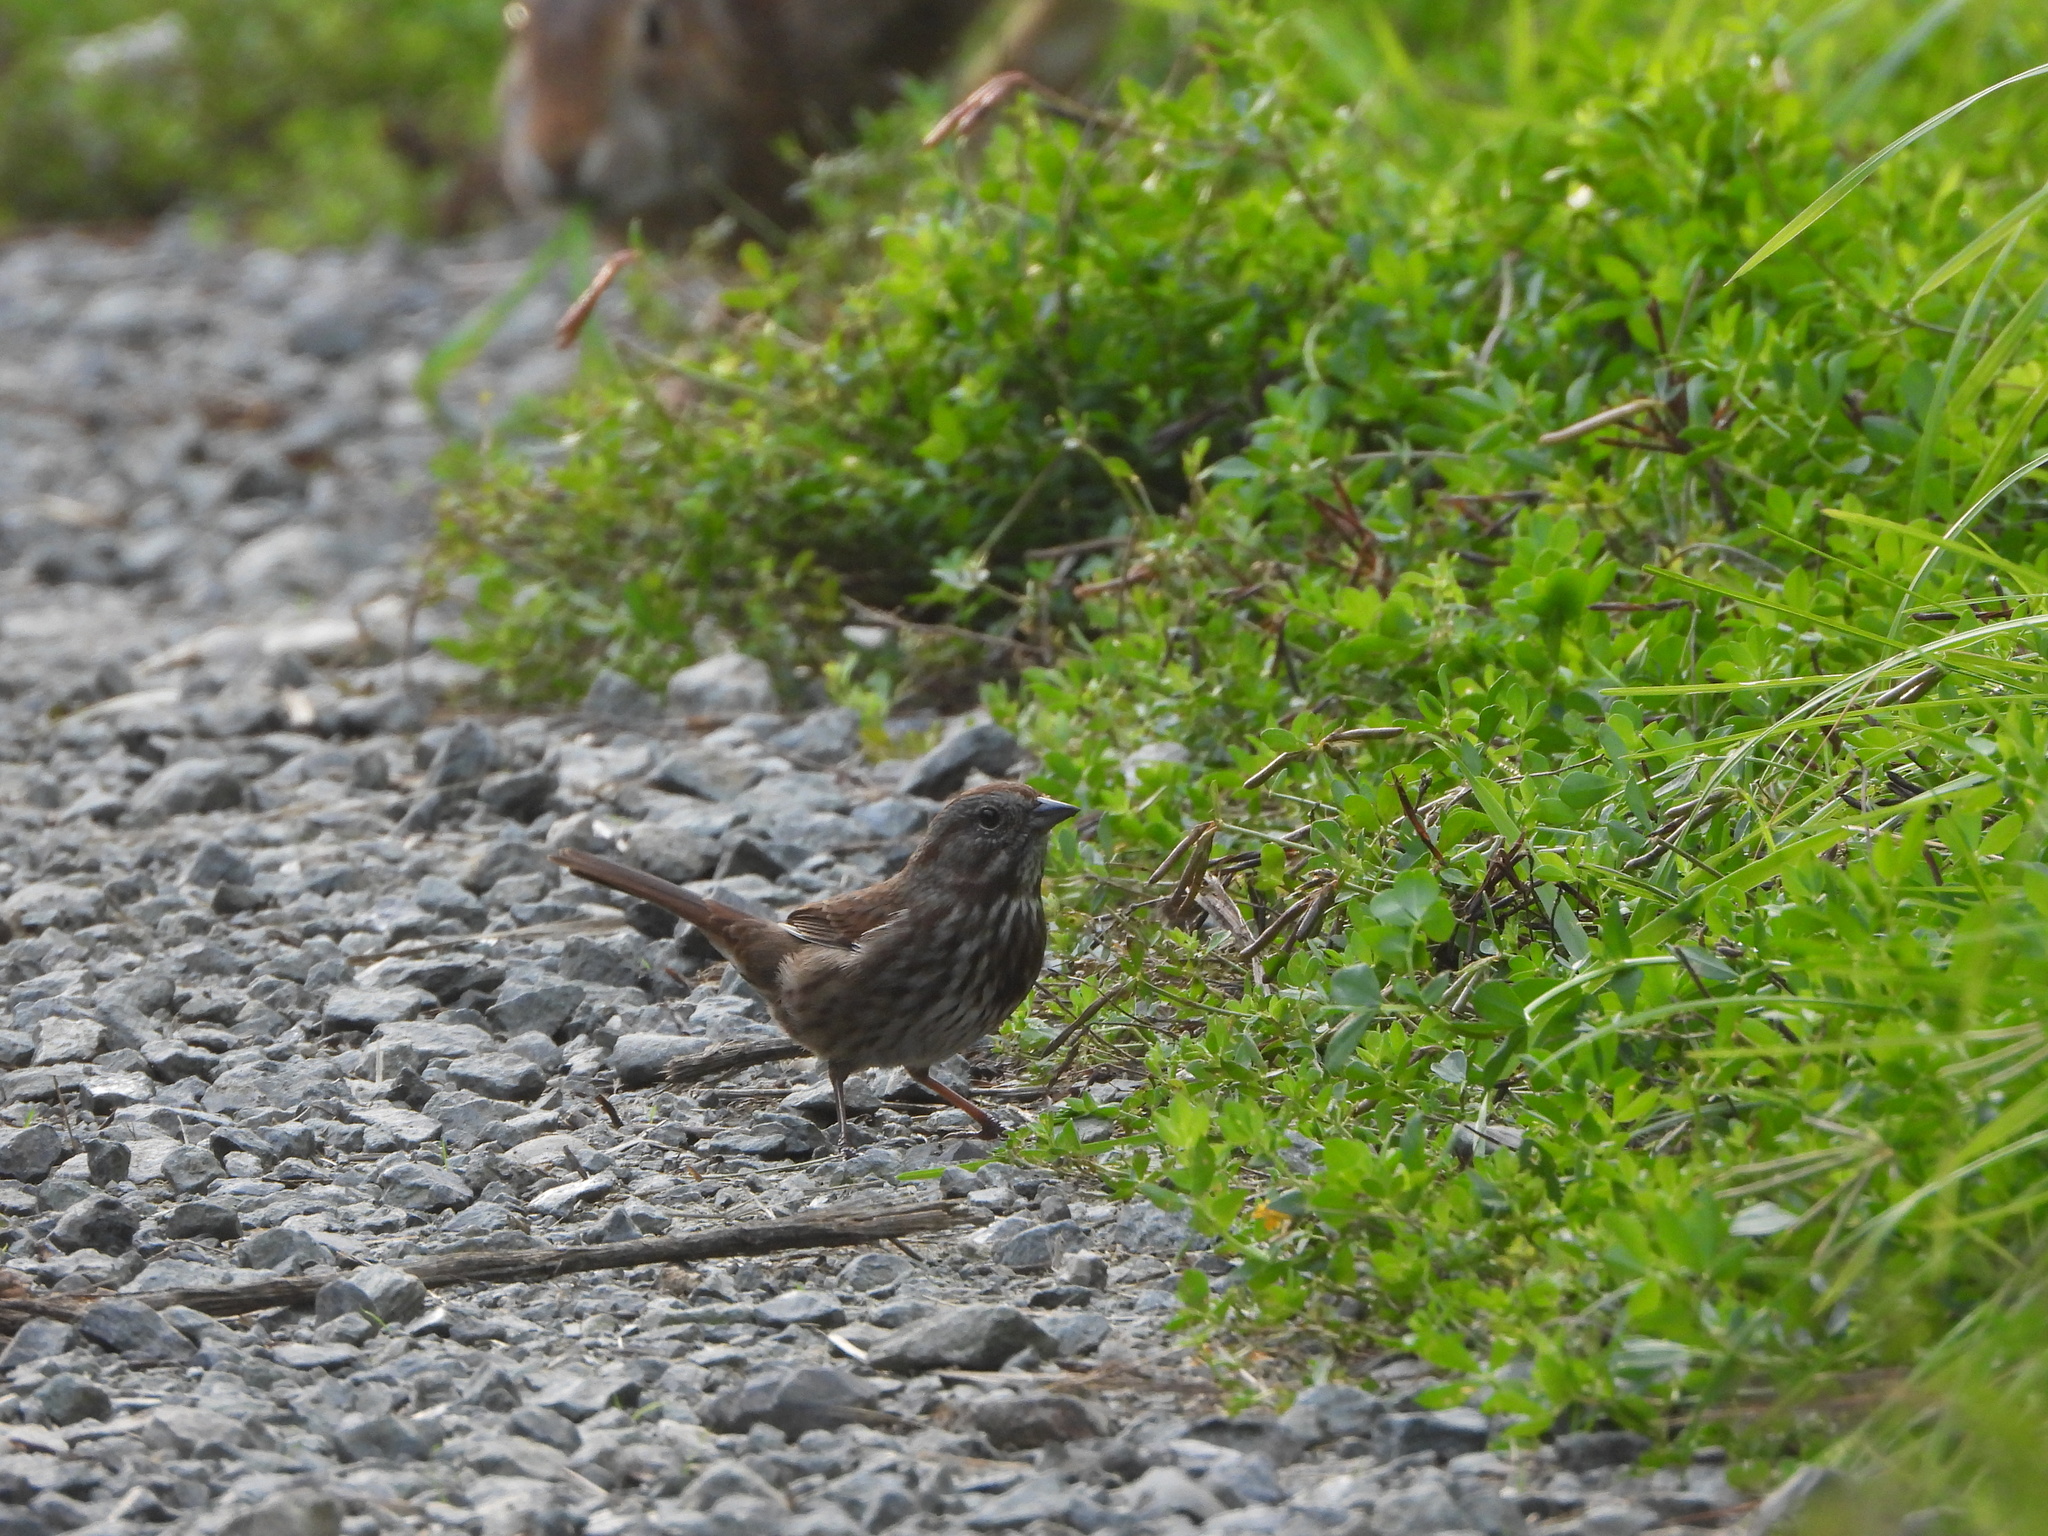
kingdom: Animalia
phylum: Chordata
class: Aves
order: Passeriformes
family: Passerellidae
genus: Melospiza
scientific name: Melospiza melodia
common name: Song sparrow
